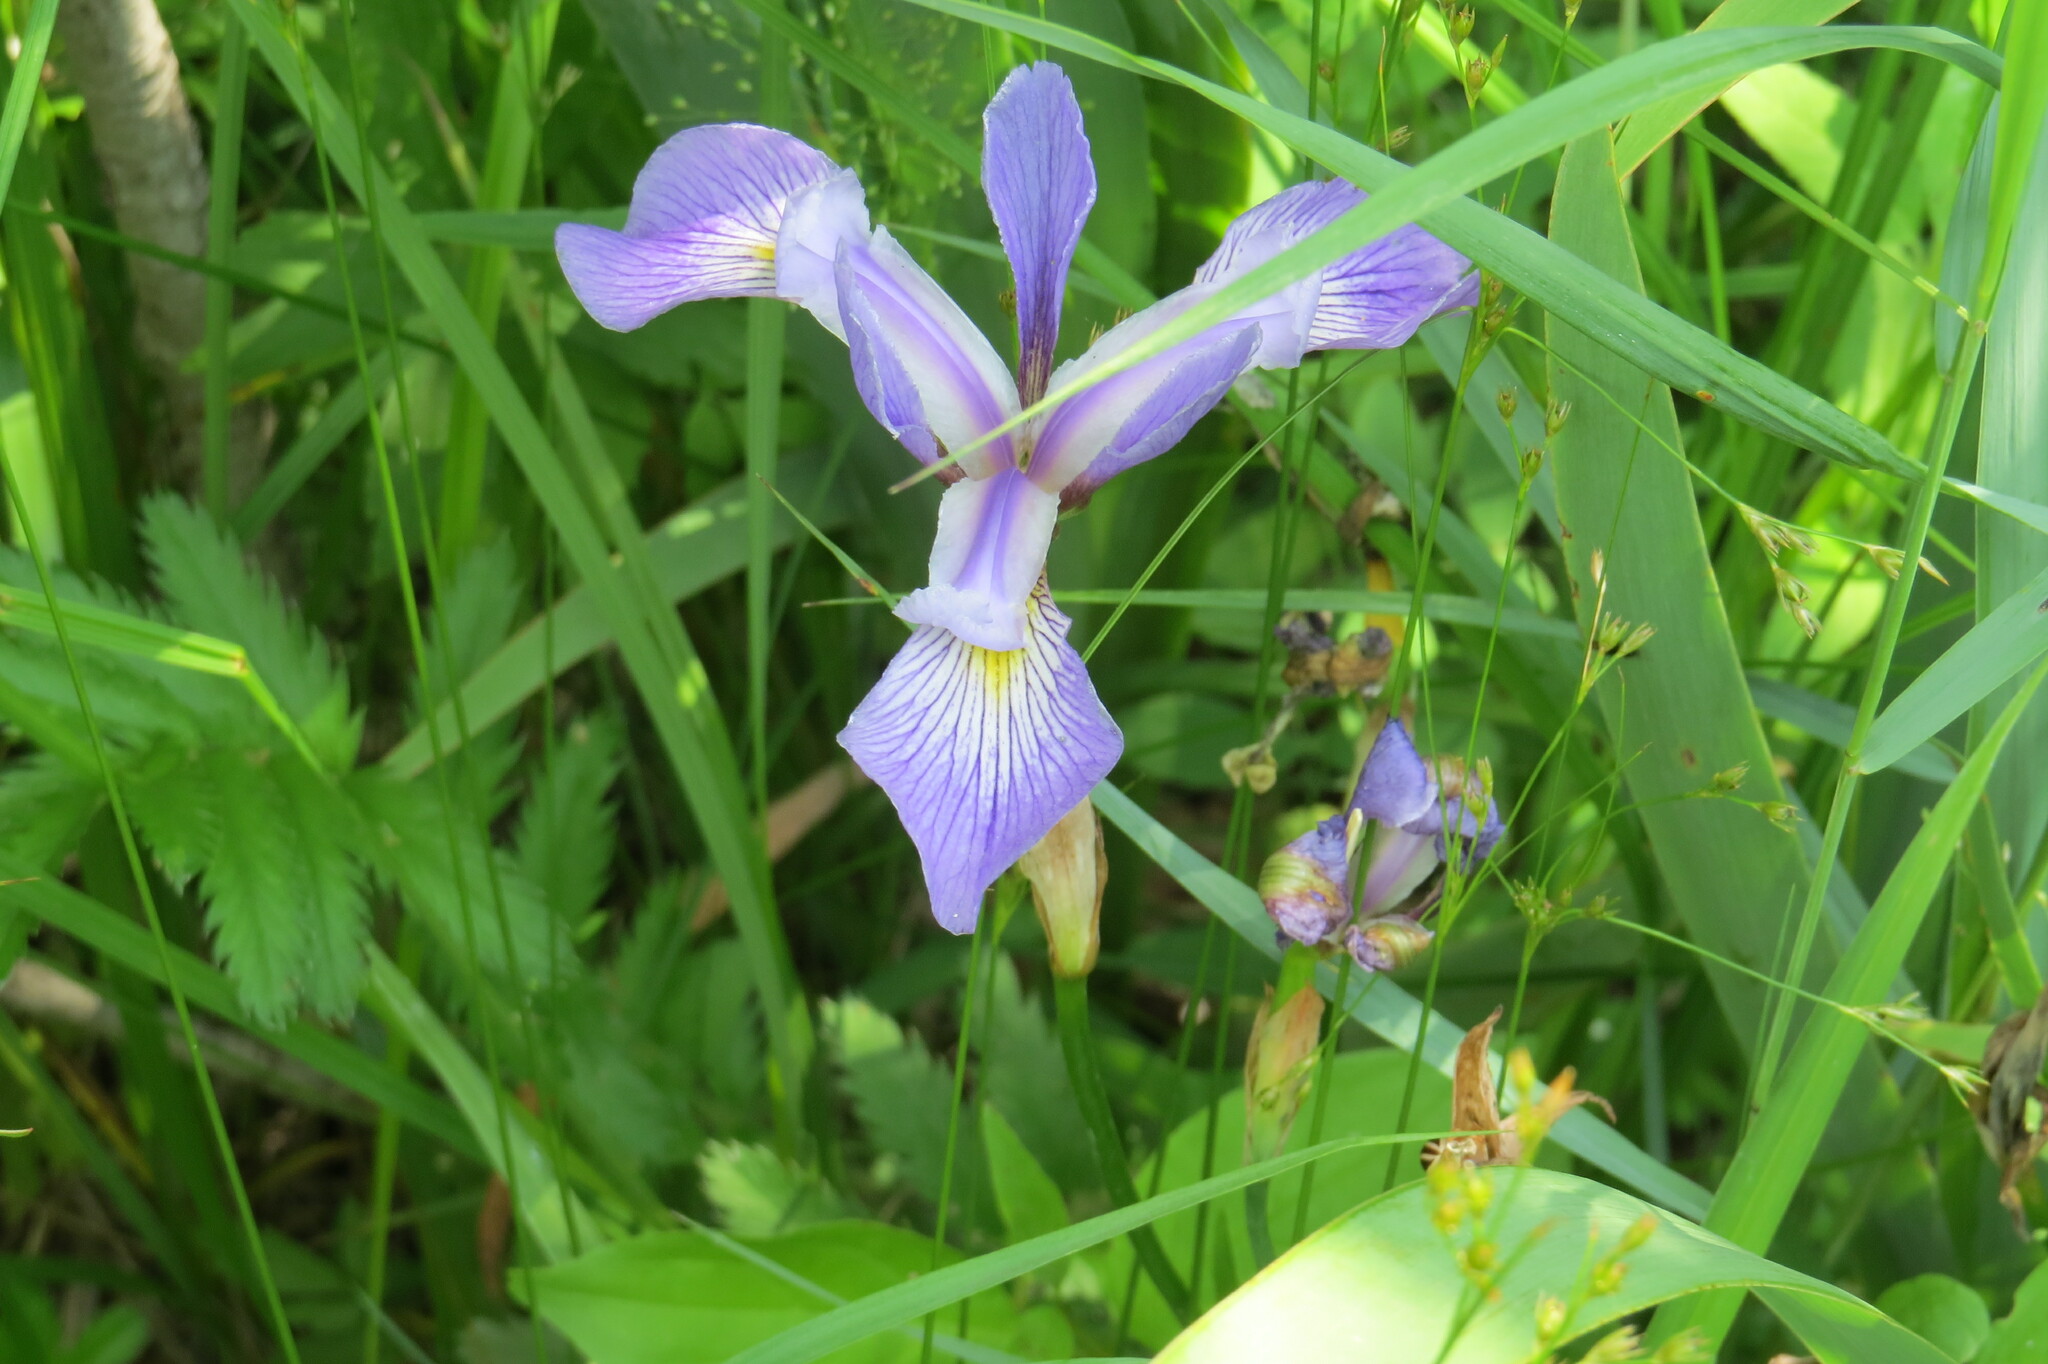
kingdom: Plantae
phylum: Tracheophyta
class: Liliopsida
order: Asparagales
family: Iridaceae
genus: Iris
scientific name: Iris virginica
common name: Southern blue flag
